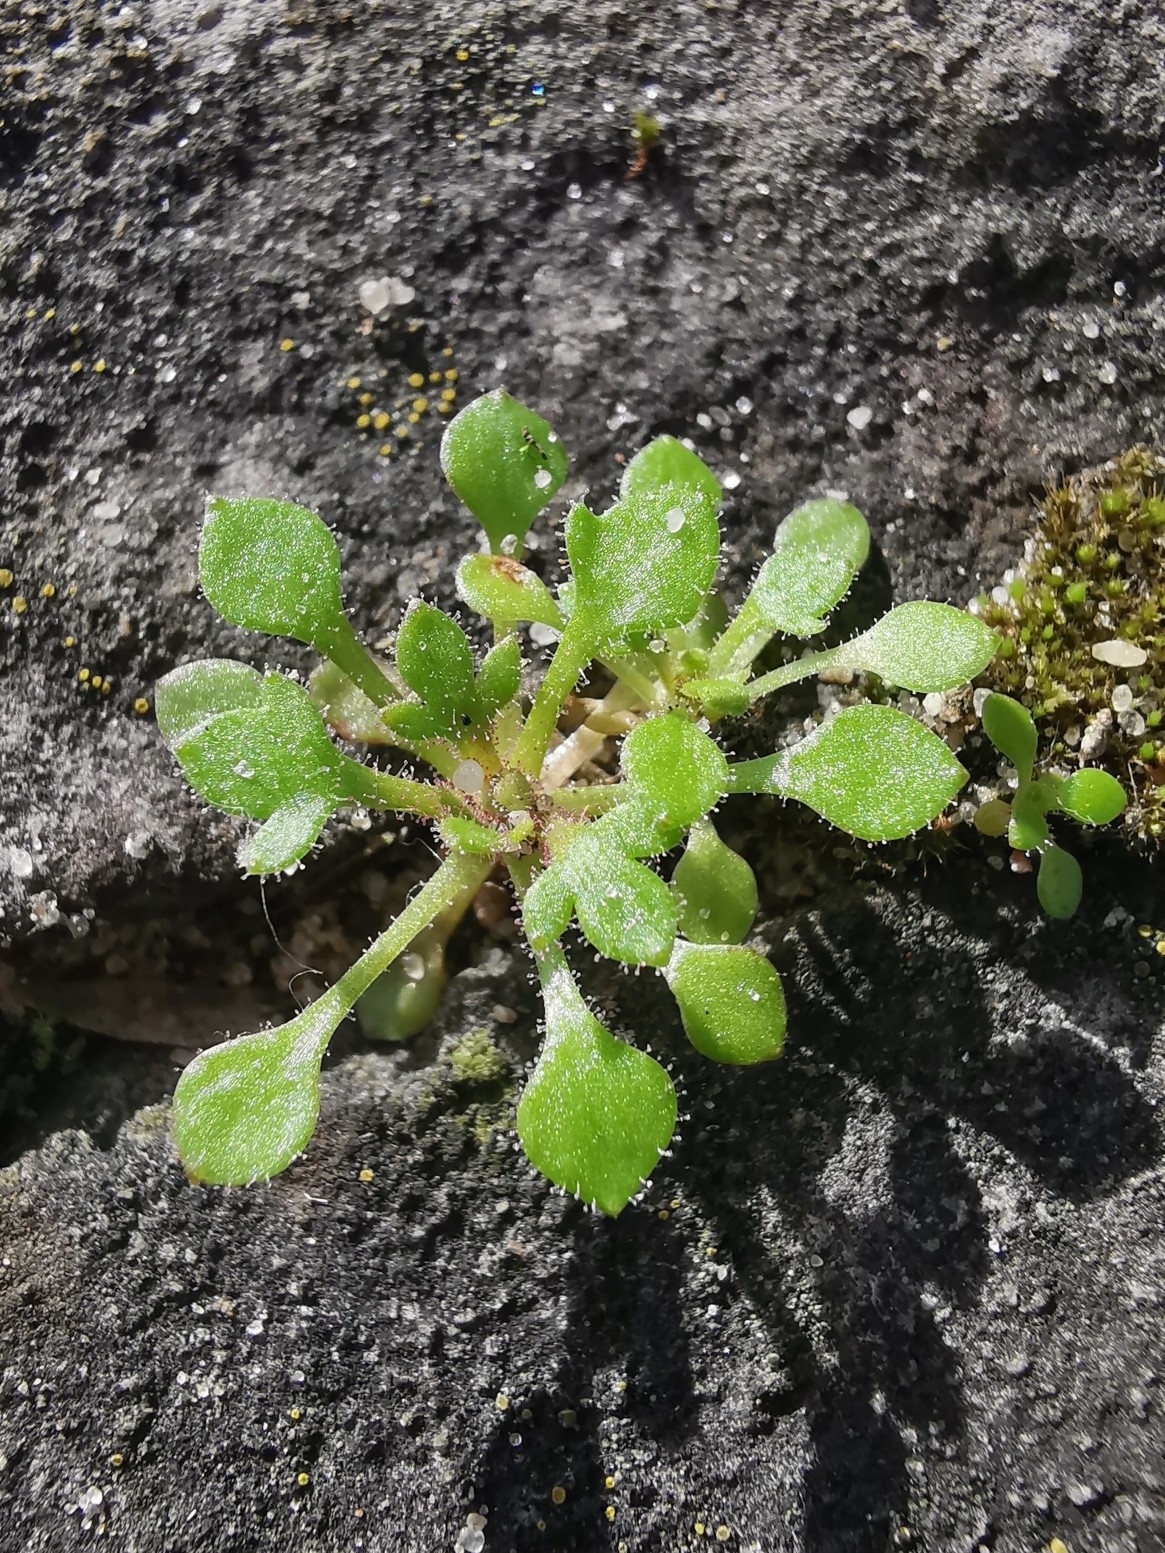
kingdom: Plantae
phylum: Tracheophyta
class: Magnoliopsida
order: Saxifragales
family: Saxifragaceae
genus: Saxifraga
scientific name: Saxifraga tridactylites
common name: Rue-leaved saxifrage
